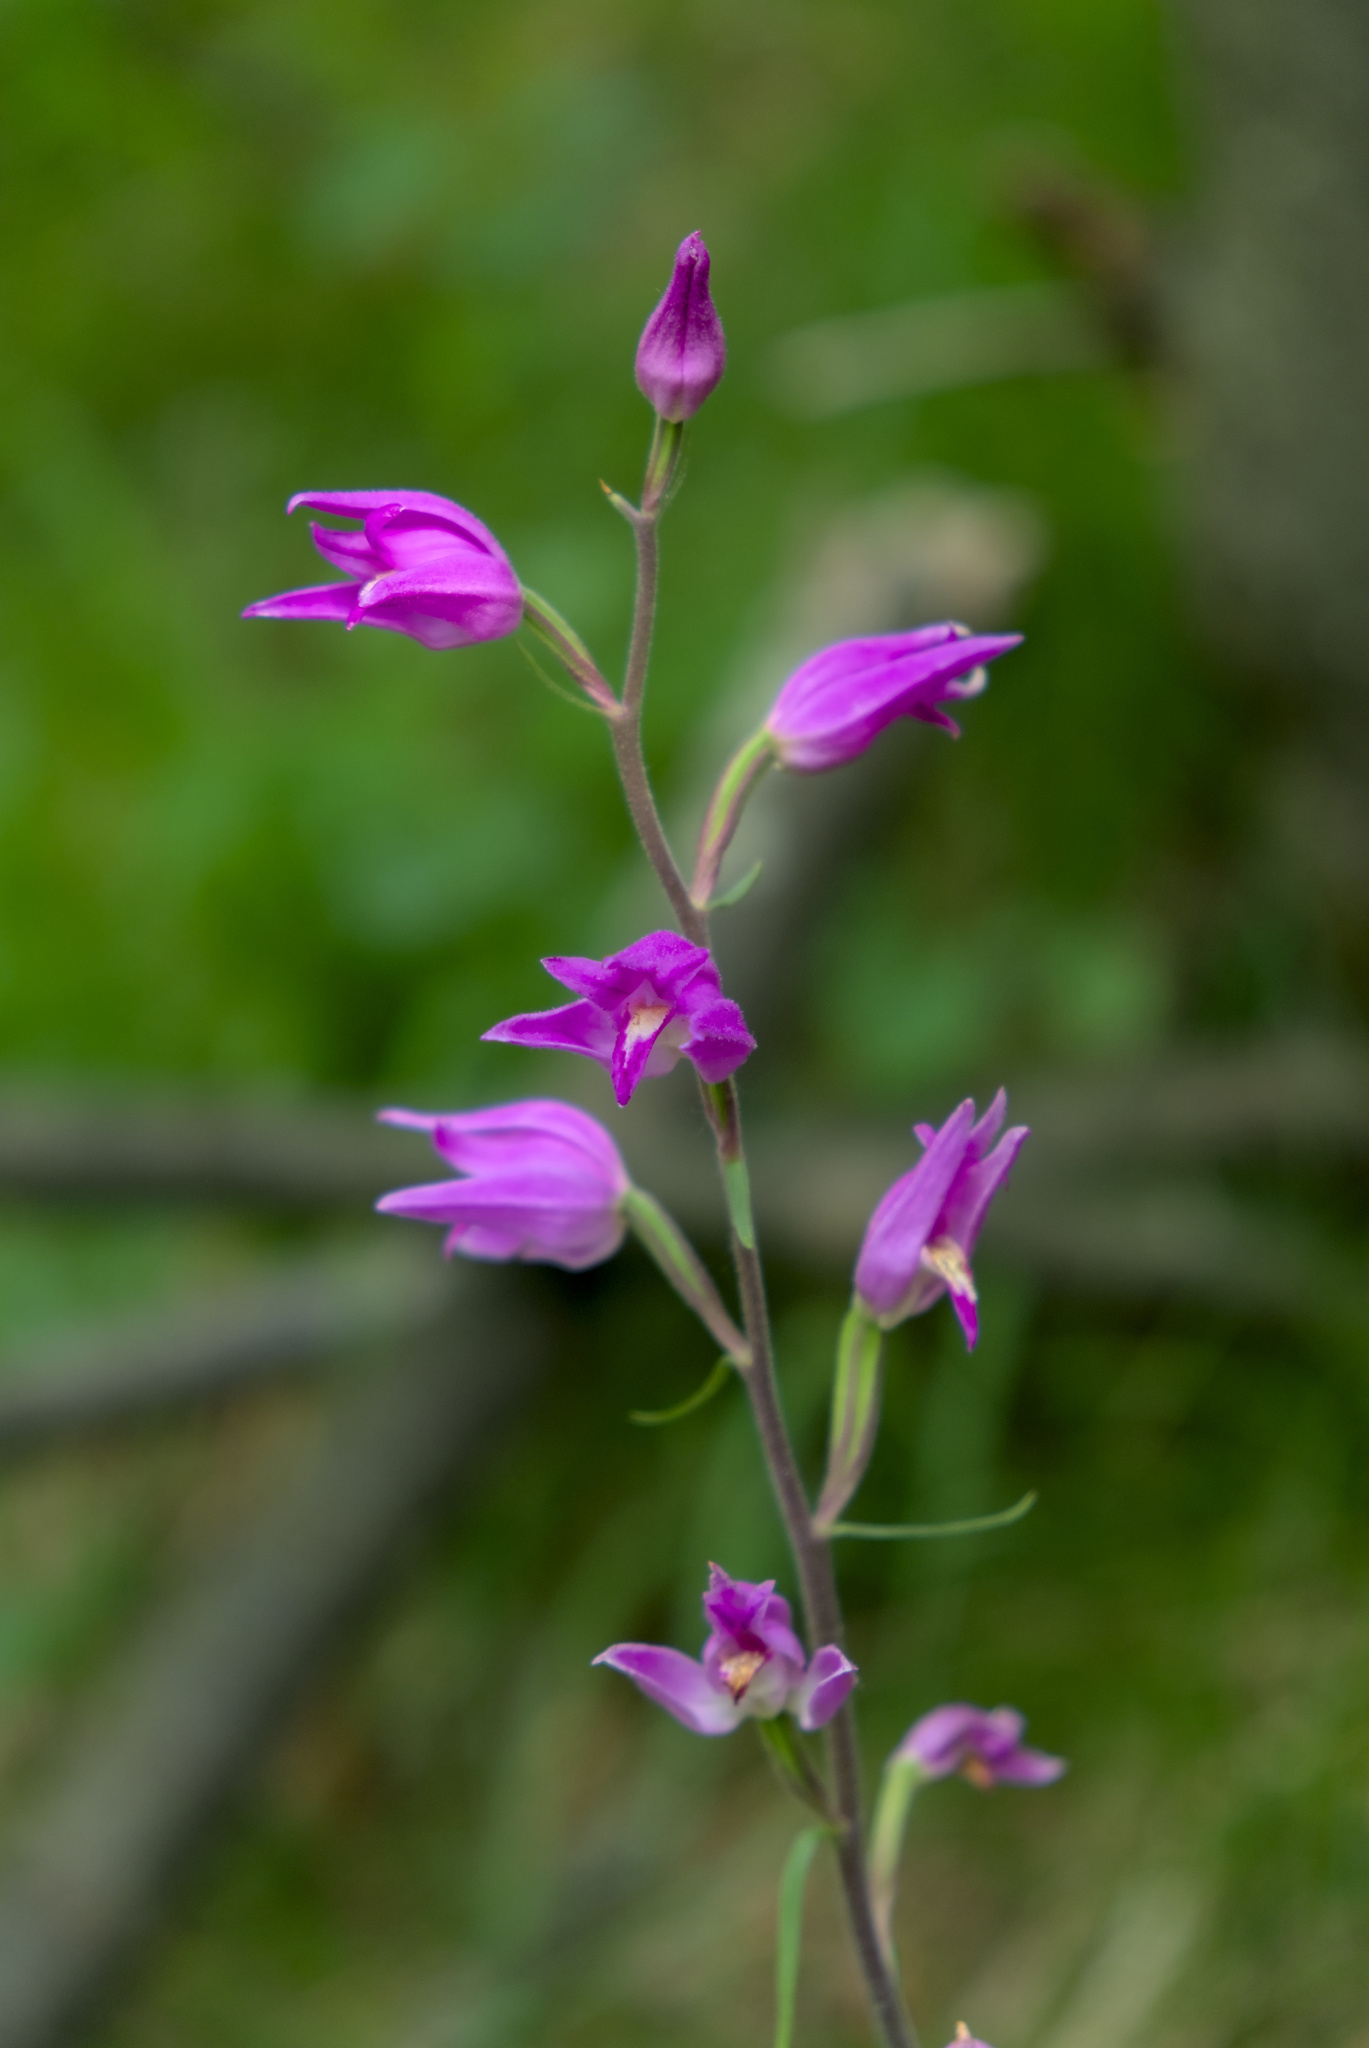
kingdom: Plantae
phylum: Tracheophyta
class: Liliopsida
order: Asparagales
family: Orchidaceae
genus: Cephalanthera
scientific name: Cephalanthera rubra
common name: Red helleborine
